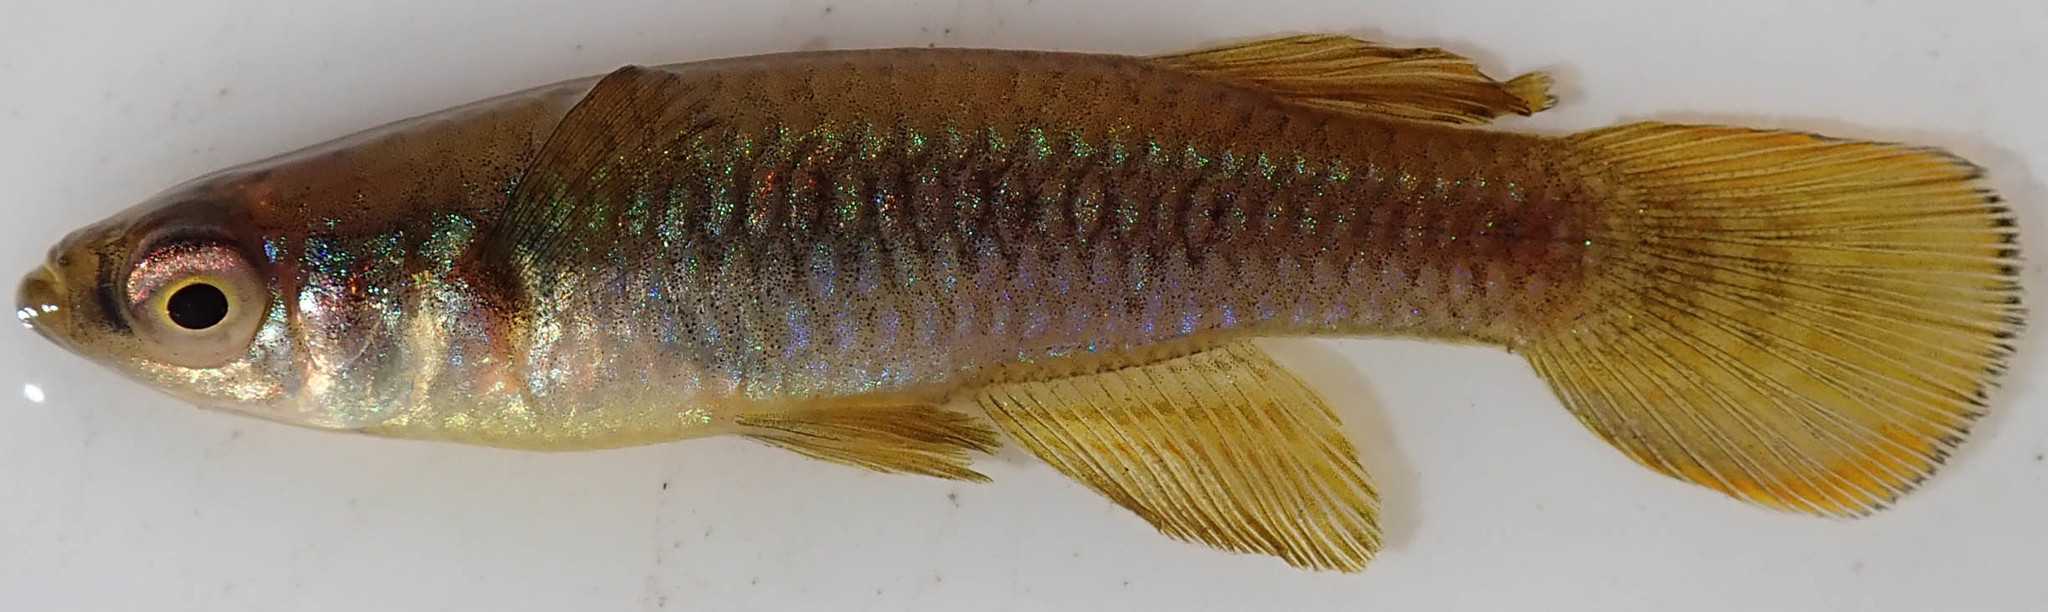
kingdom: Animalia
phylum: Chordata
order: Cyprinodontiformes
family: Poeciliidae
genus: Micropanchax
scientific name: Micropanchax johnstoni
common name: Johnston's topminnow
